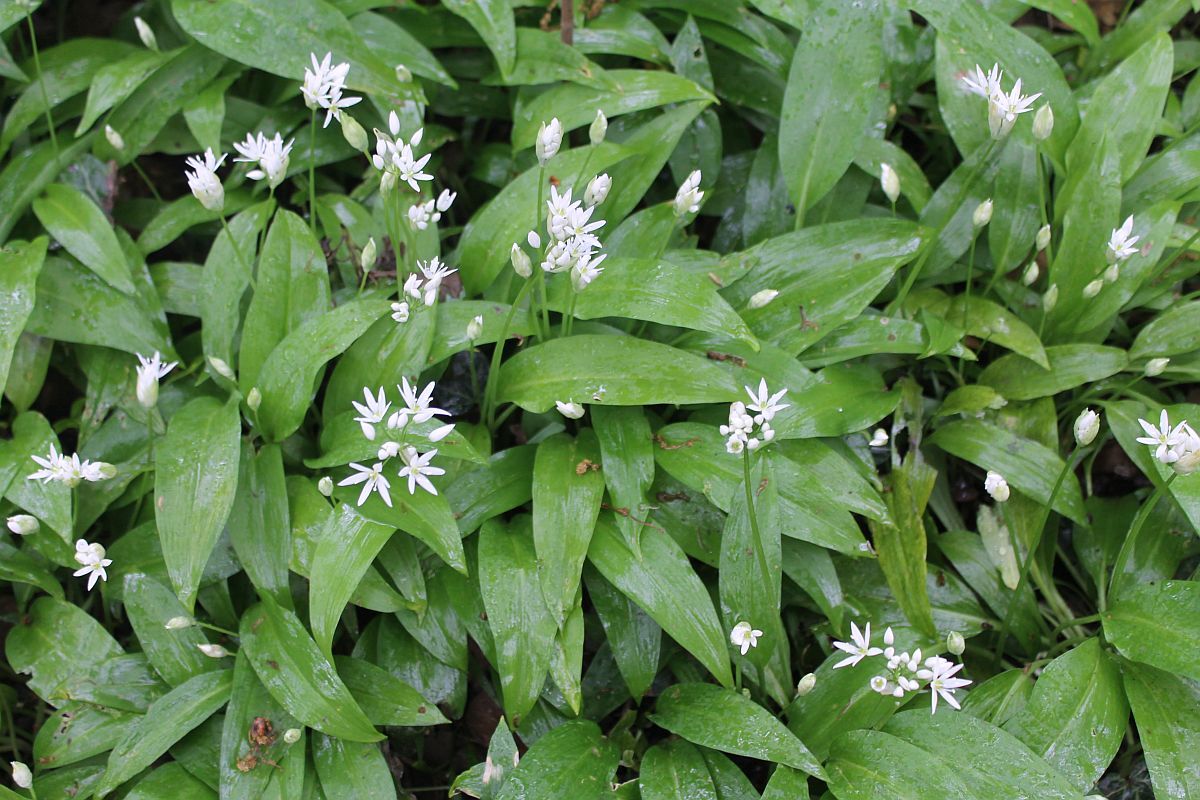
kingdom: Plantae
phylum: Tracheophyta
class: Liliopsida
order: Asparagales
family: Amaryllidaceae
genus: Allium
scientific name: Allium ursinum
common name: Ramsons
